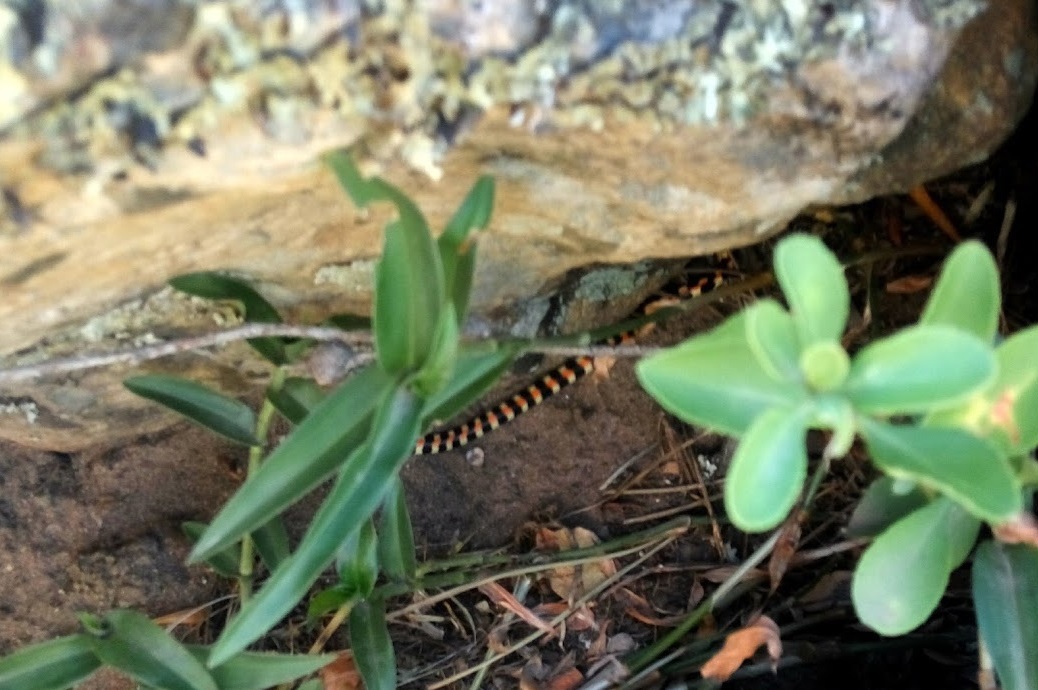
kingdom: Animalia
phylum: Chordata
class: Squamata
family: Atractaspididae
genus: Homoroselaps
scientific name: Homoroselaps lacteus
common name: Spotted harlequin snake
